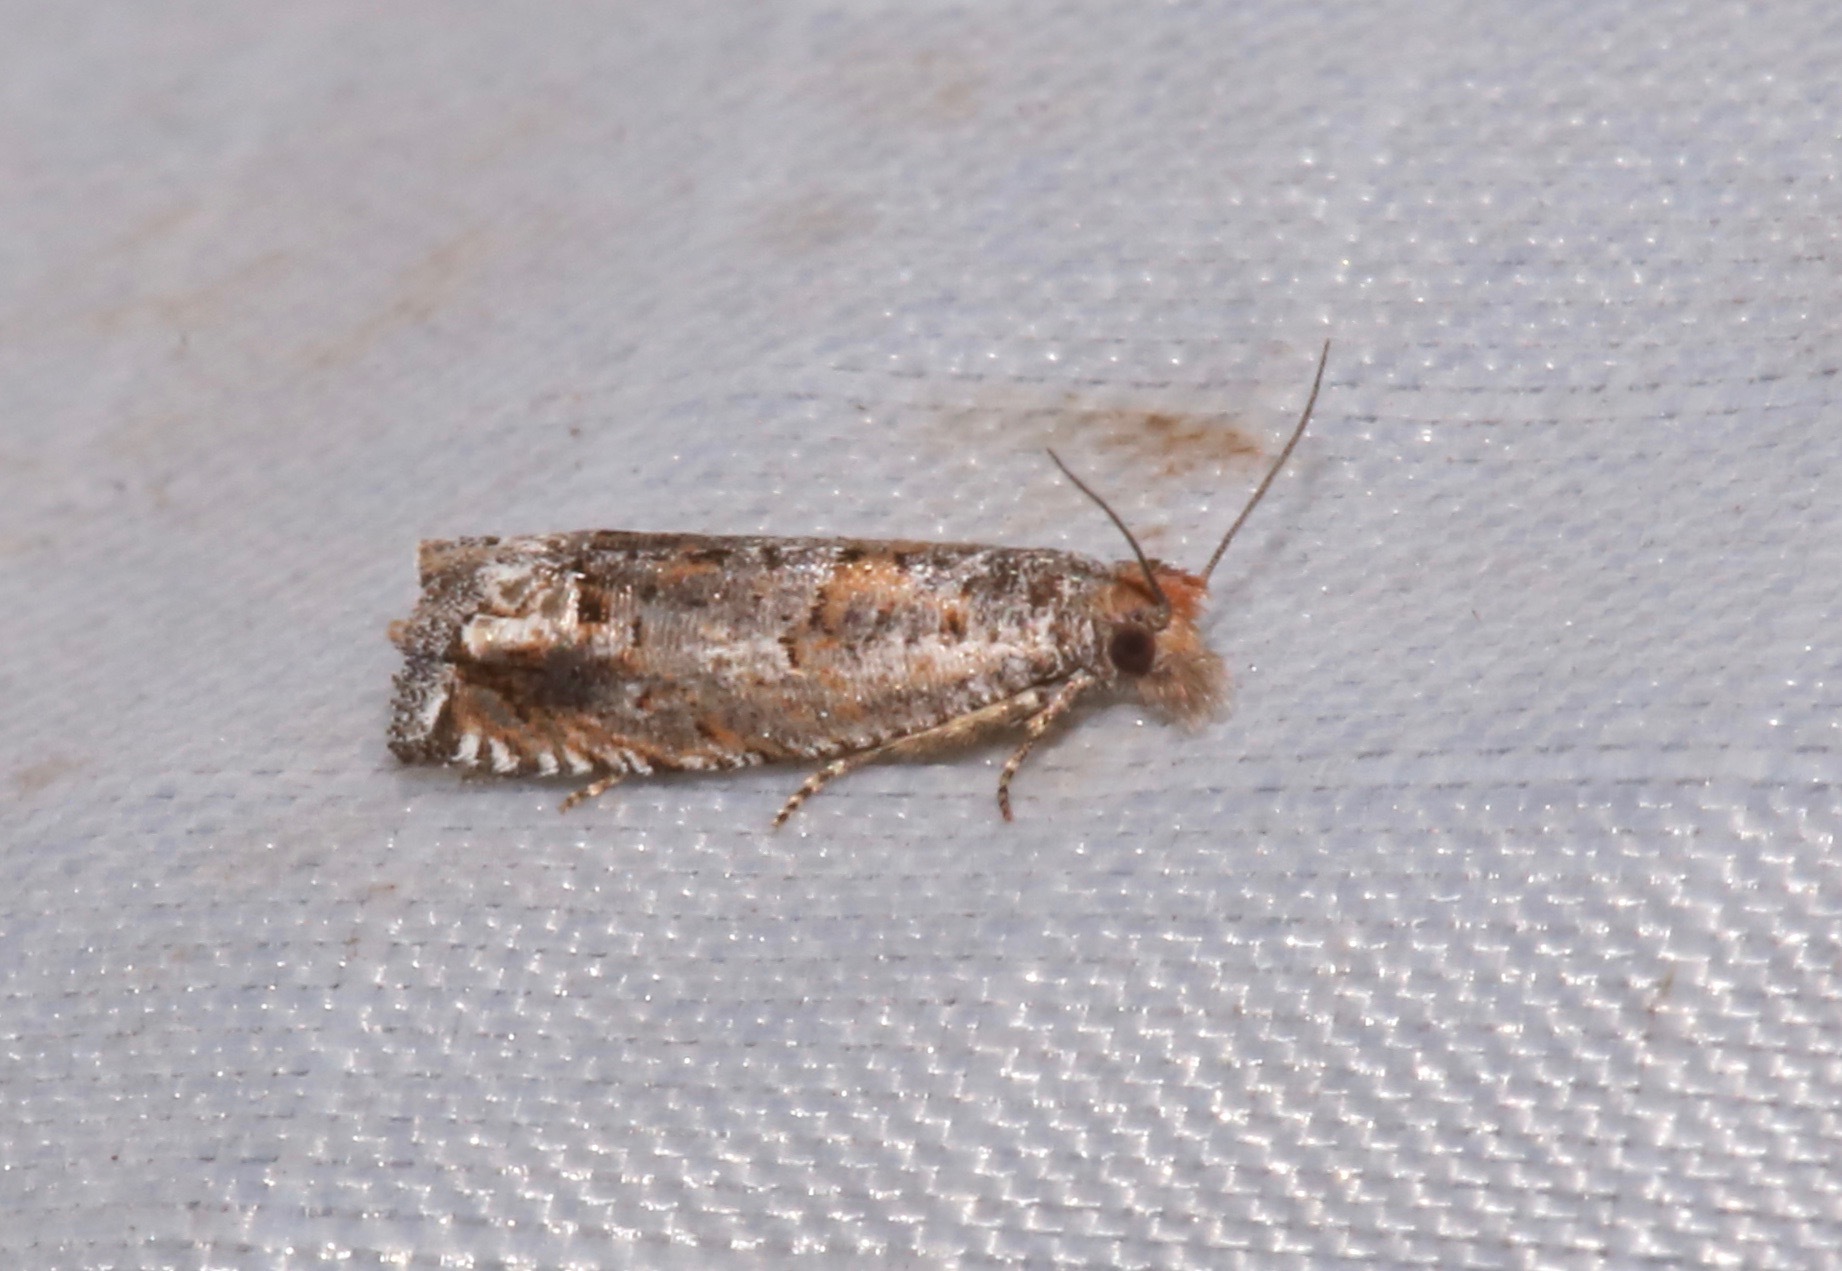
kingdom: Animalia
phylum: Arthropoda
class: Insecta
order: Lepidoptera
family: Tortricidae
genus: Epiblema
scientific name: Epiblema exacerbatricana
